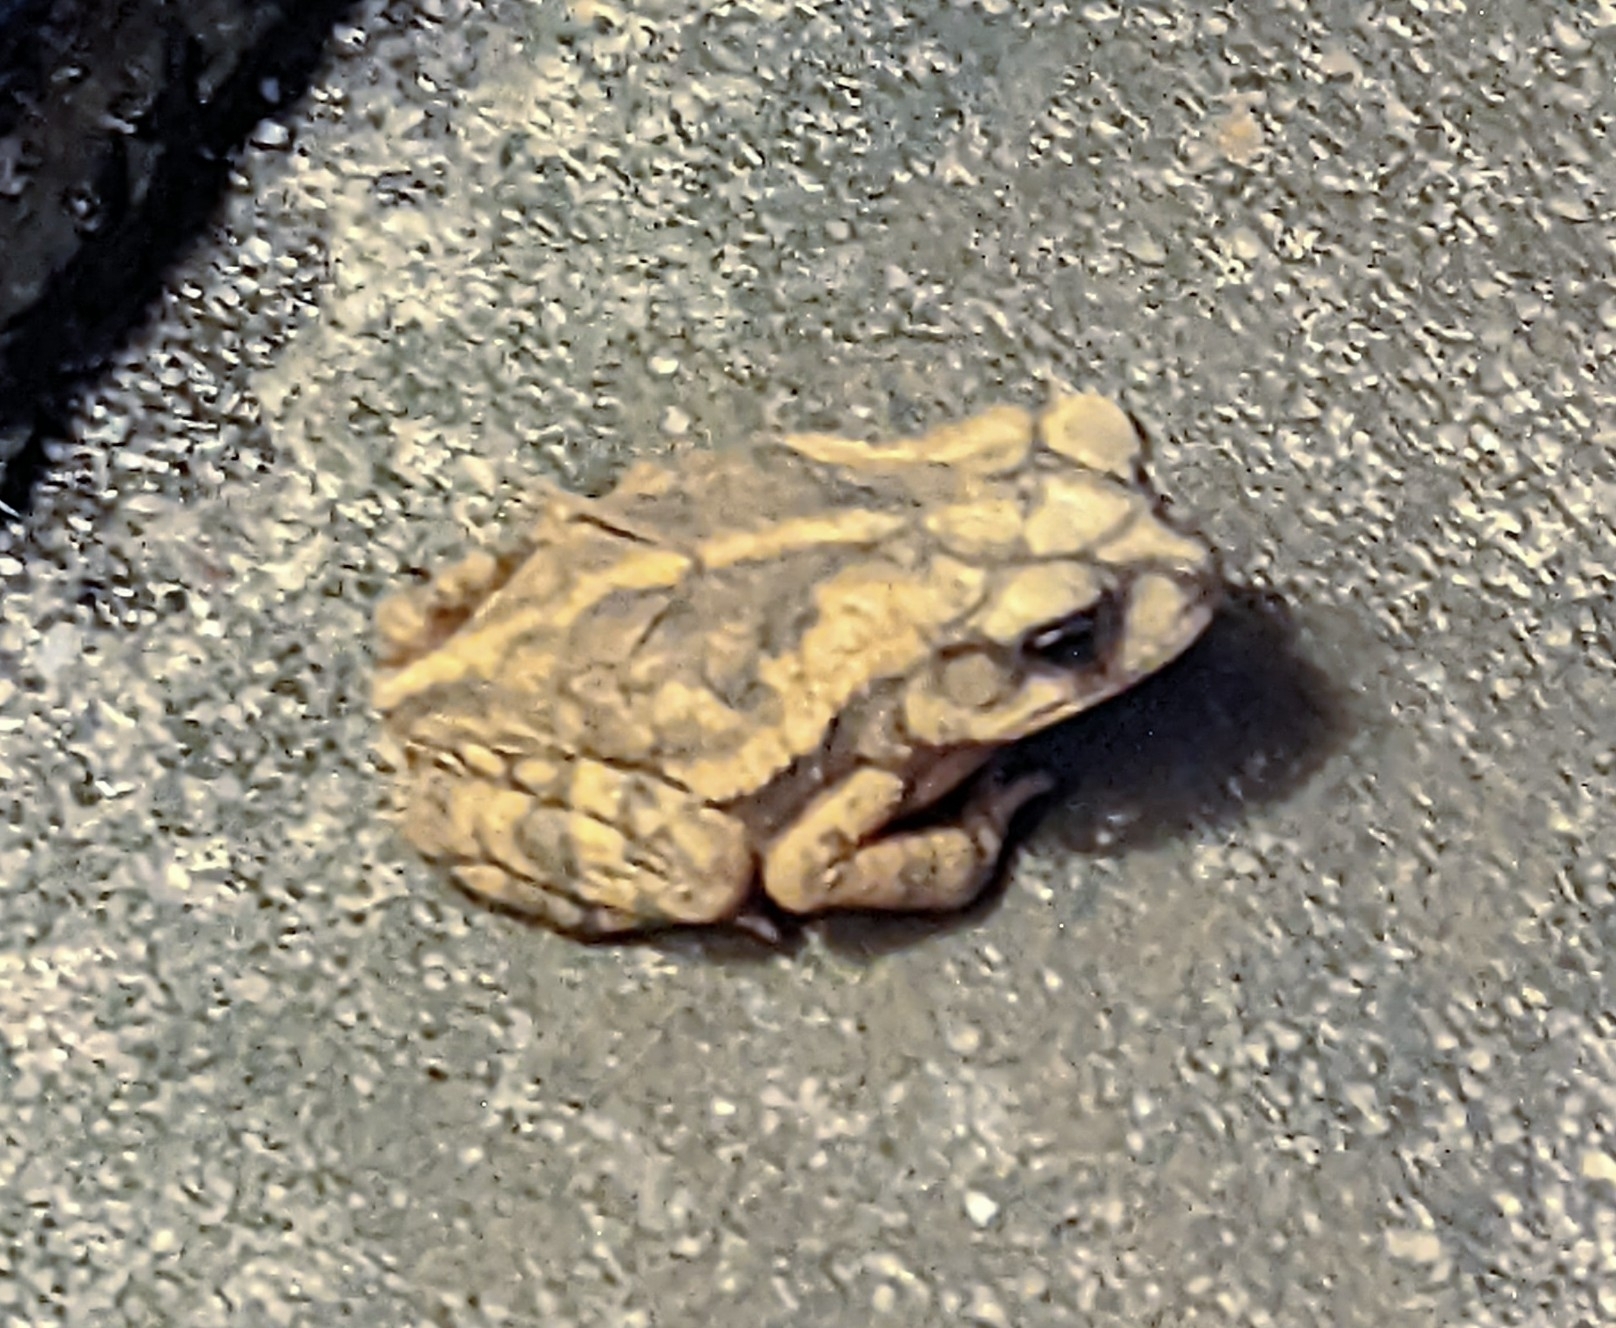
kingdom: Animalia
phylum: Chordata
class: Amphibia
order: Anura
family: Bufonidae
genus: Incilius
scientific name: Incilius nebulifer
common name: Gulf coast toad
